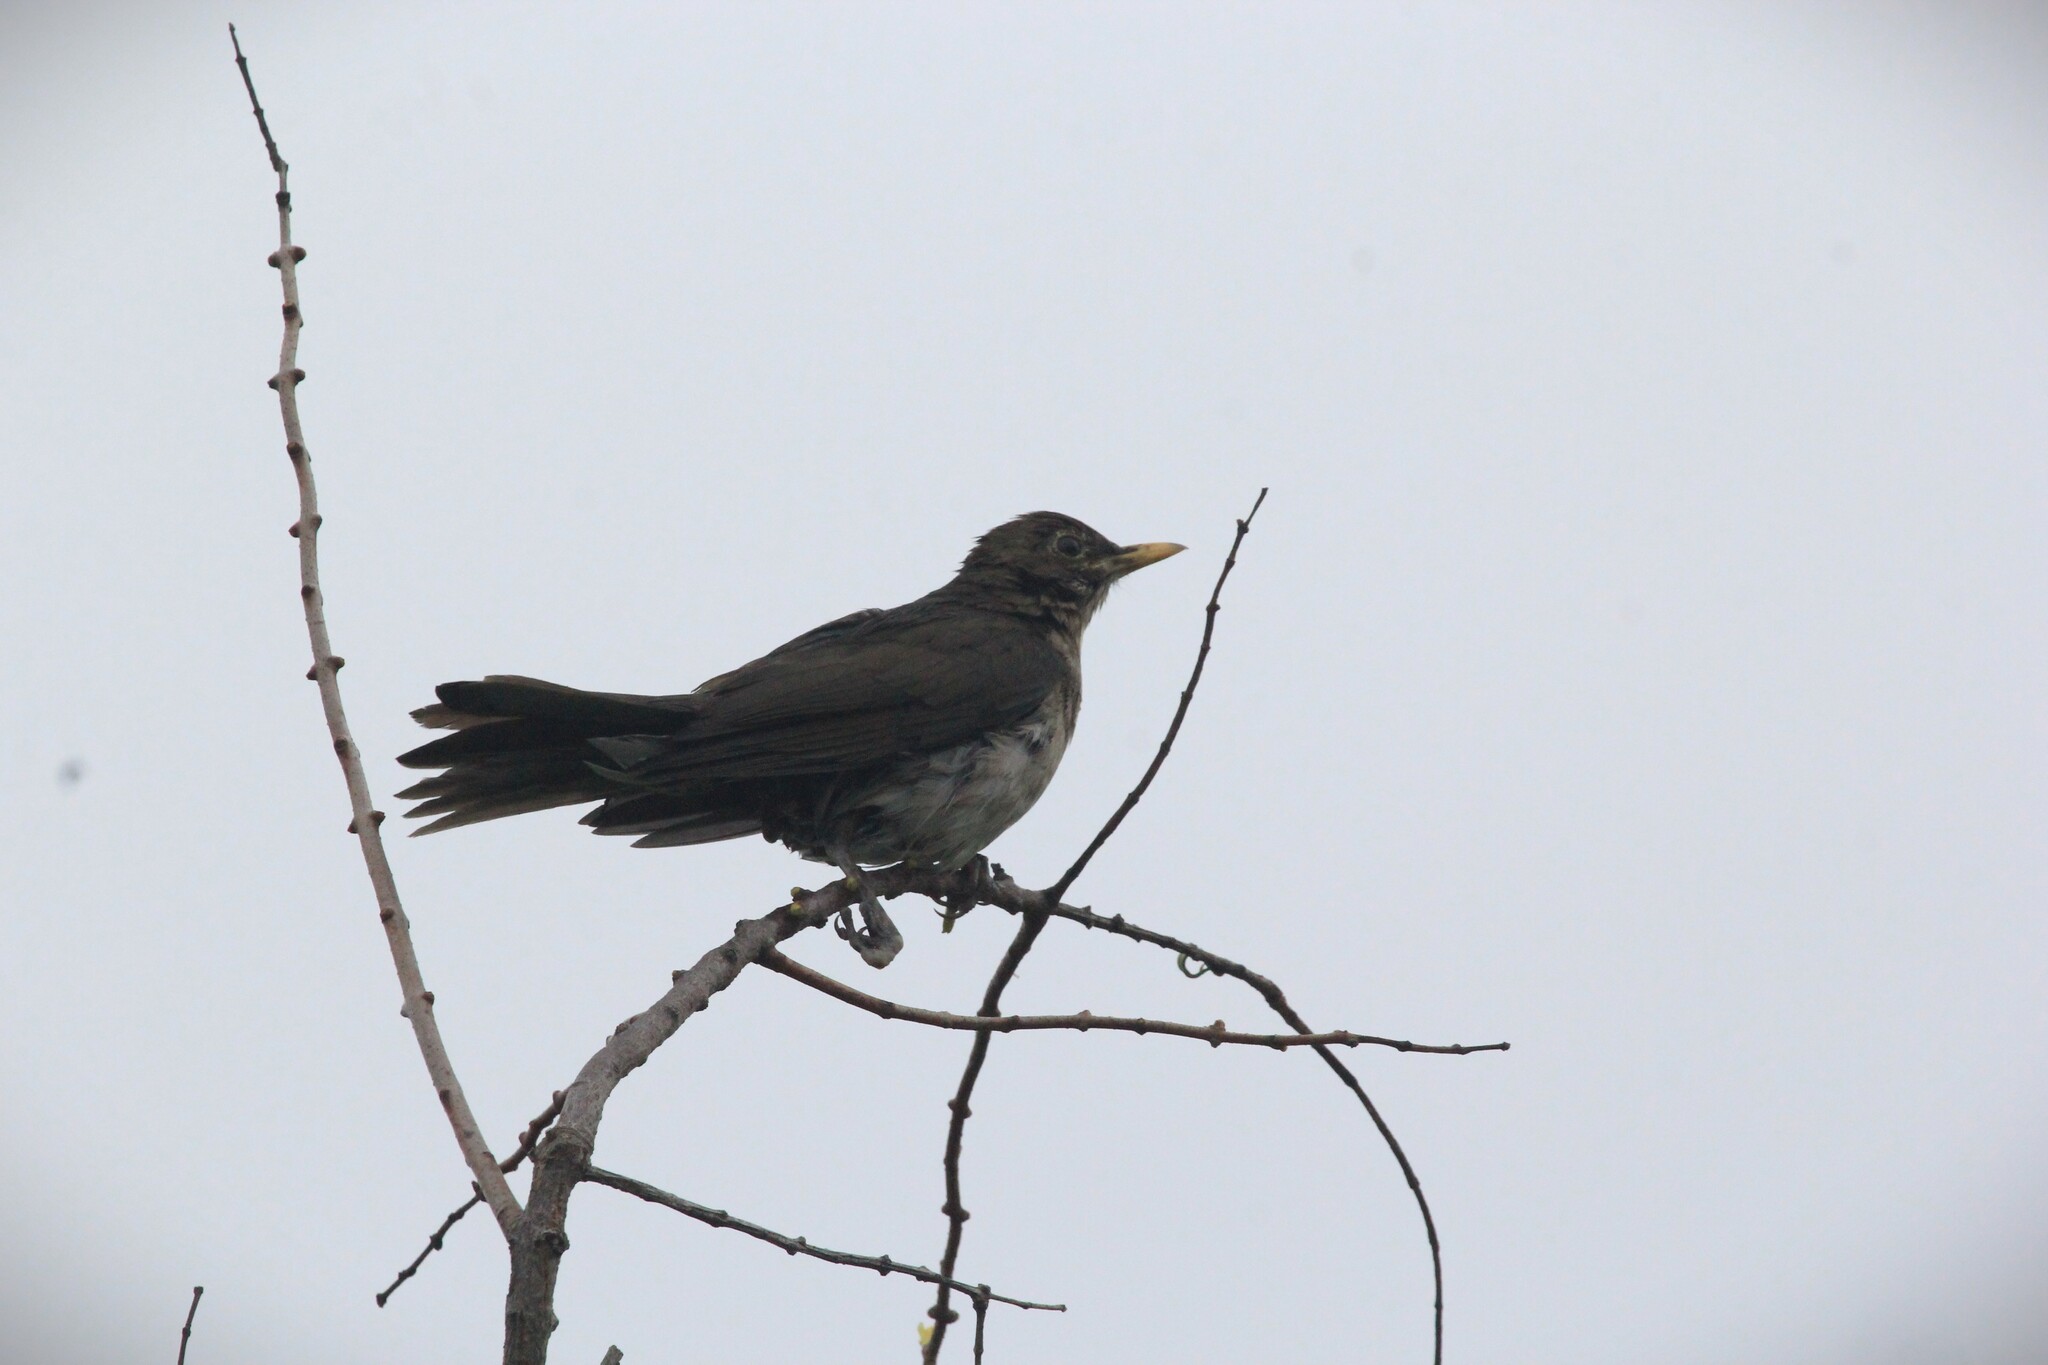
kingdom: Animalia
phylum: Chordata
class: Aves
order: Passeriformes
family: Turdidae
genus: Turdus
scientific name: Turdus amaurochalinus
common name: Creamy-bellied thrush
